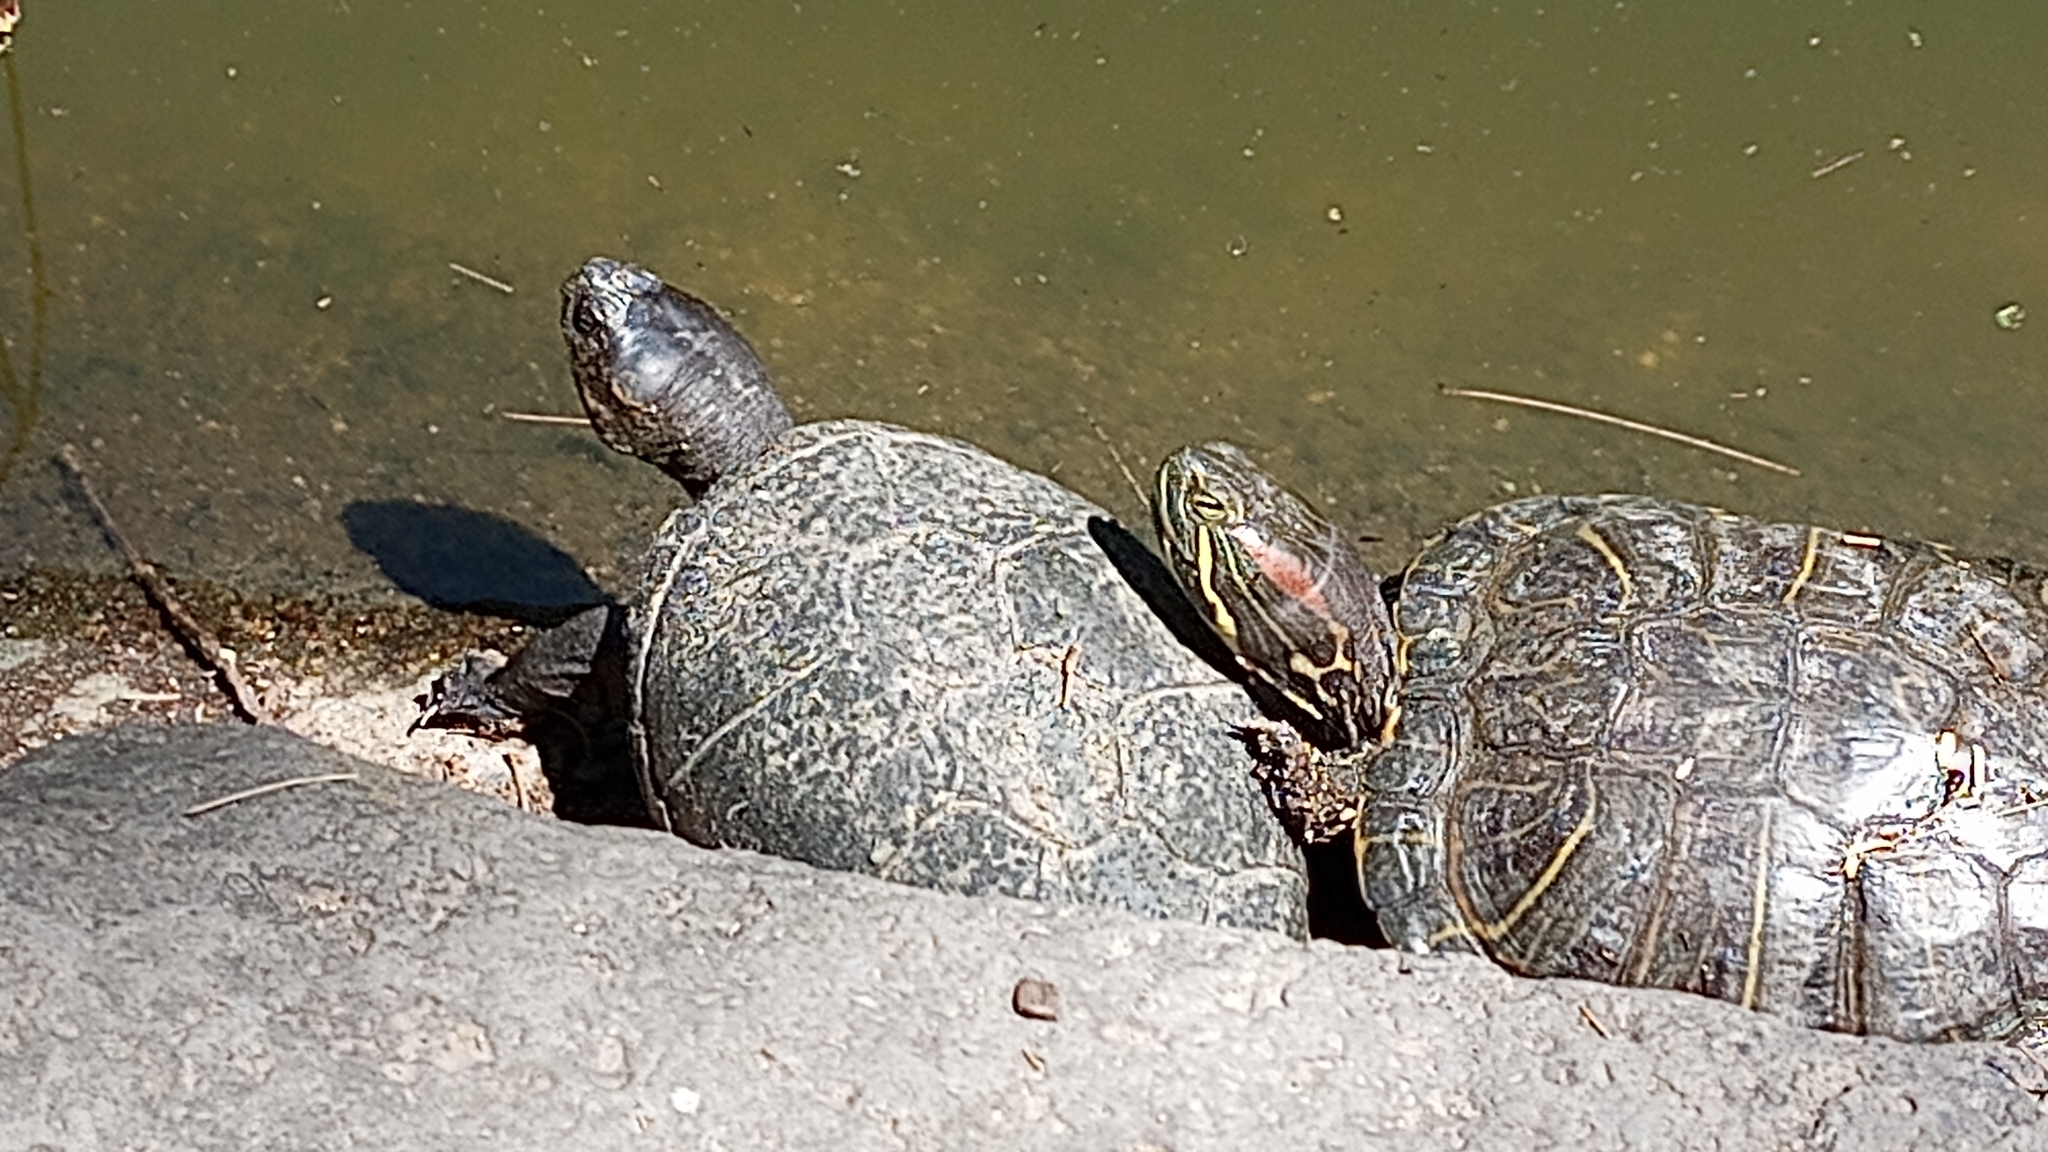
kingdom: Animalia
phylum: Chordata
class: Testudines
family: Kinosternidae
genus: Kinosternon
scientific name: Kinosternon integrum
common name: Mexican mud turtle
